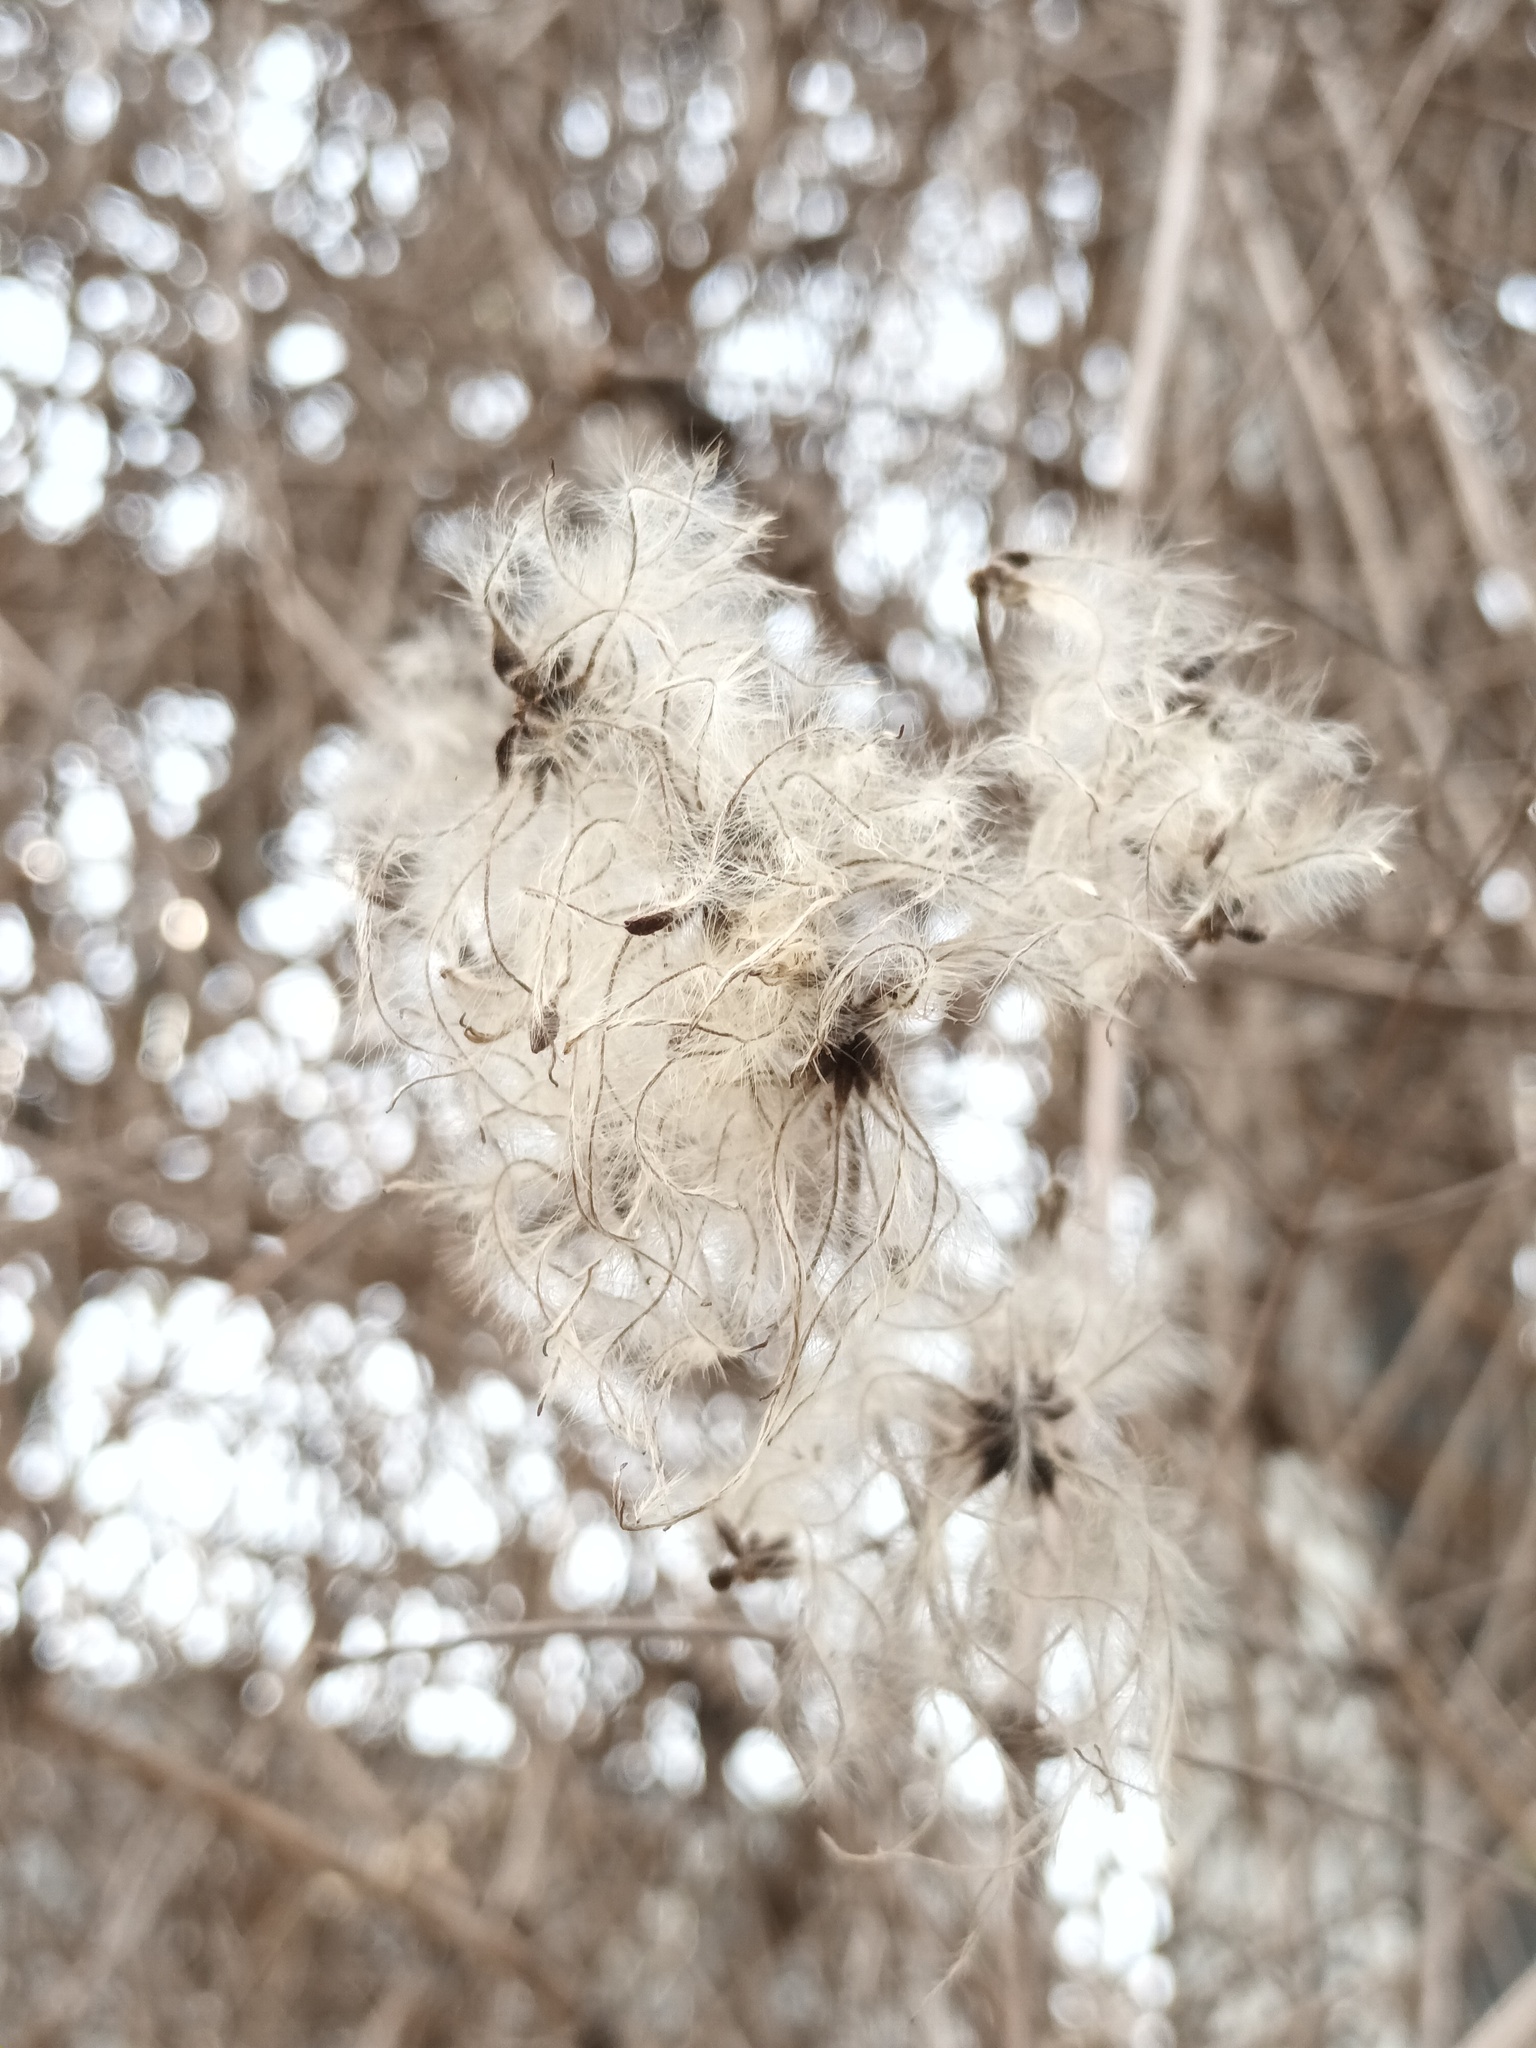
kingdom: Plantae
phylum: Tracheophyta
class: Magnoliopsida
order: Ranunculales
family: Ranunculaceae
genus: Clematis
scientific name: Clematis vitalba
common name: Evergreen clematis
